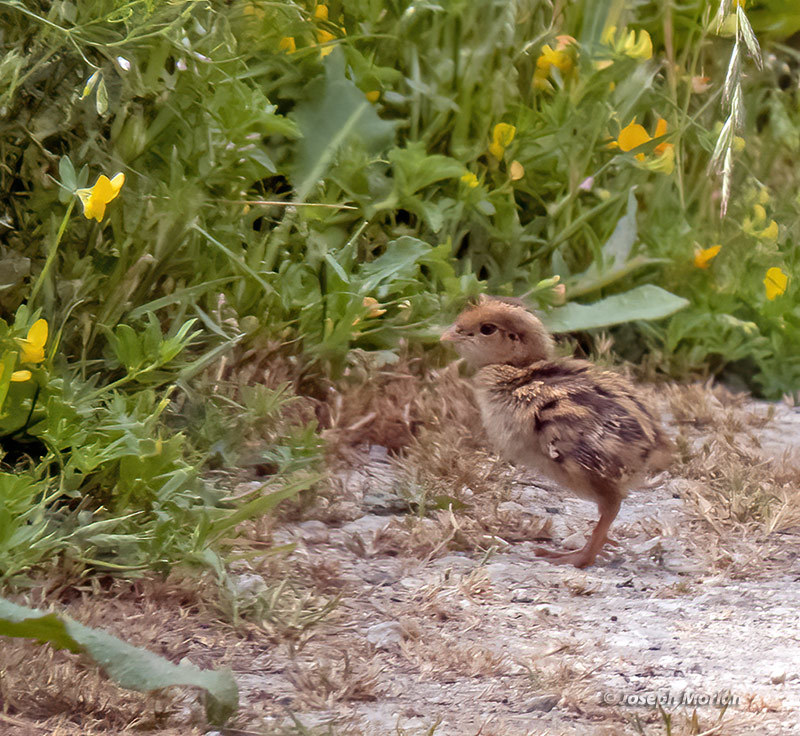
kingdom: Animalia
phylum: Chordata
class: Aves
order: Galliformes
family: Odontophoridae
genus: Callipepla
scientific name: Callipepla californica
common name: California quail
